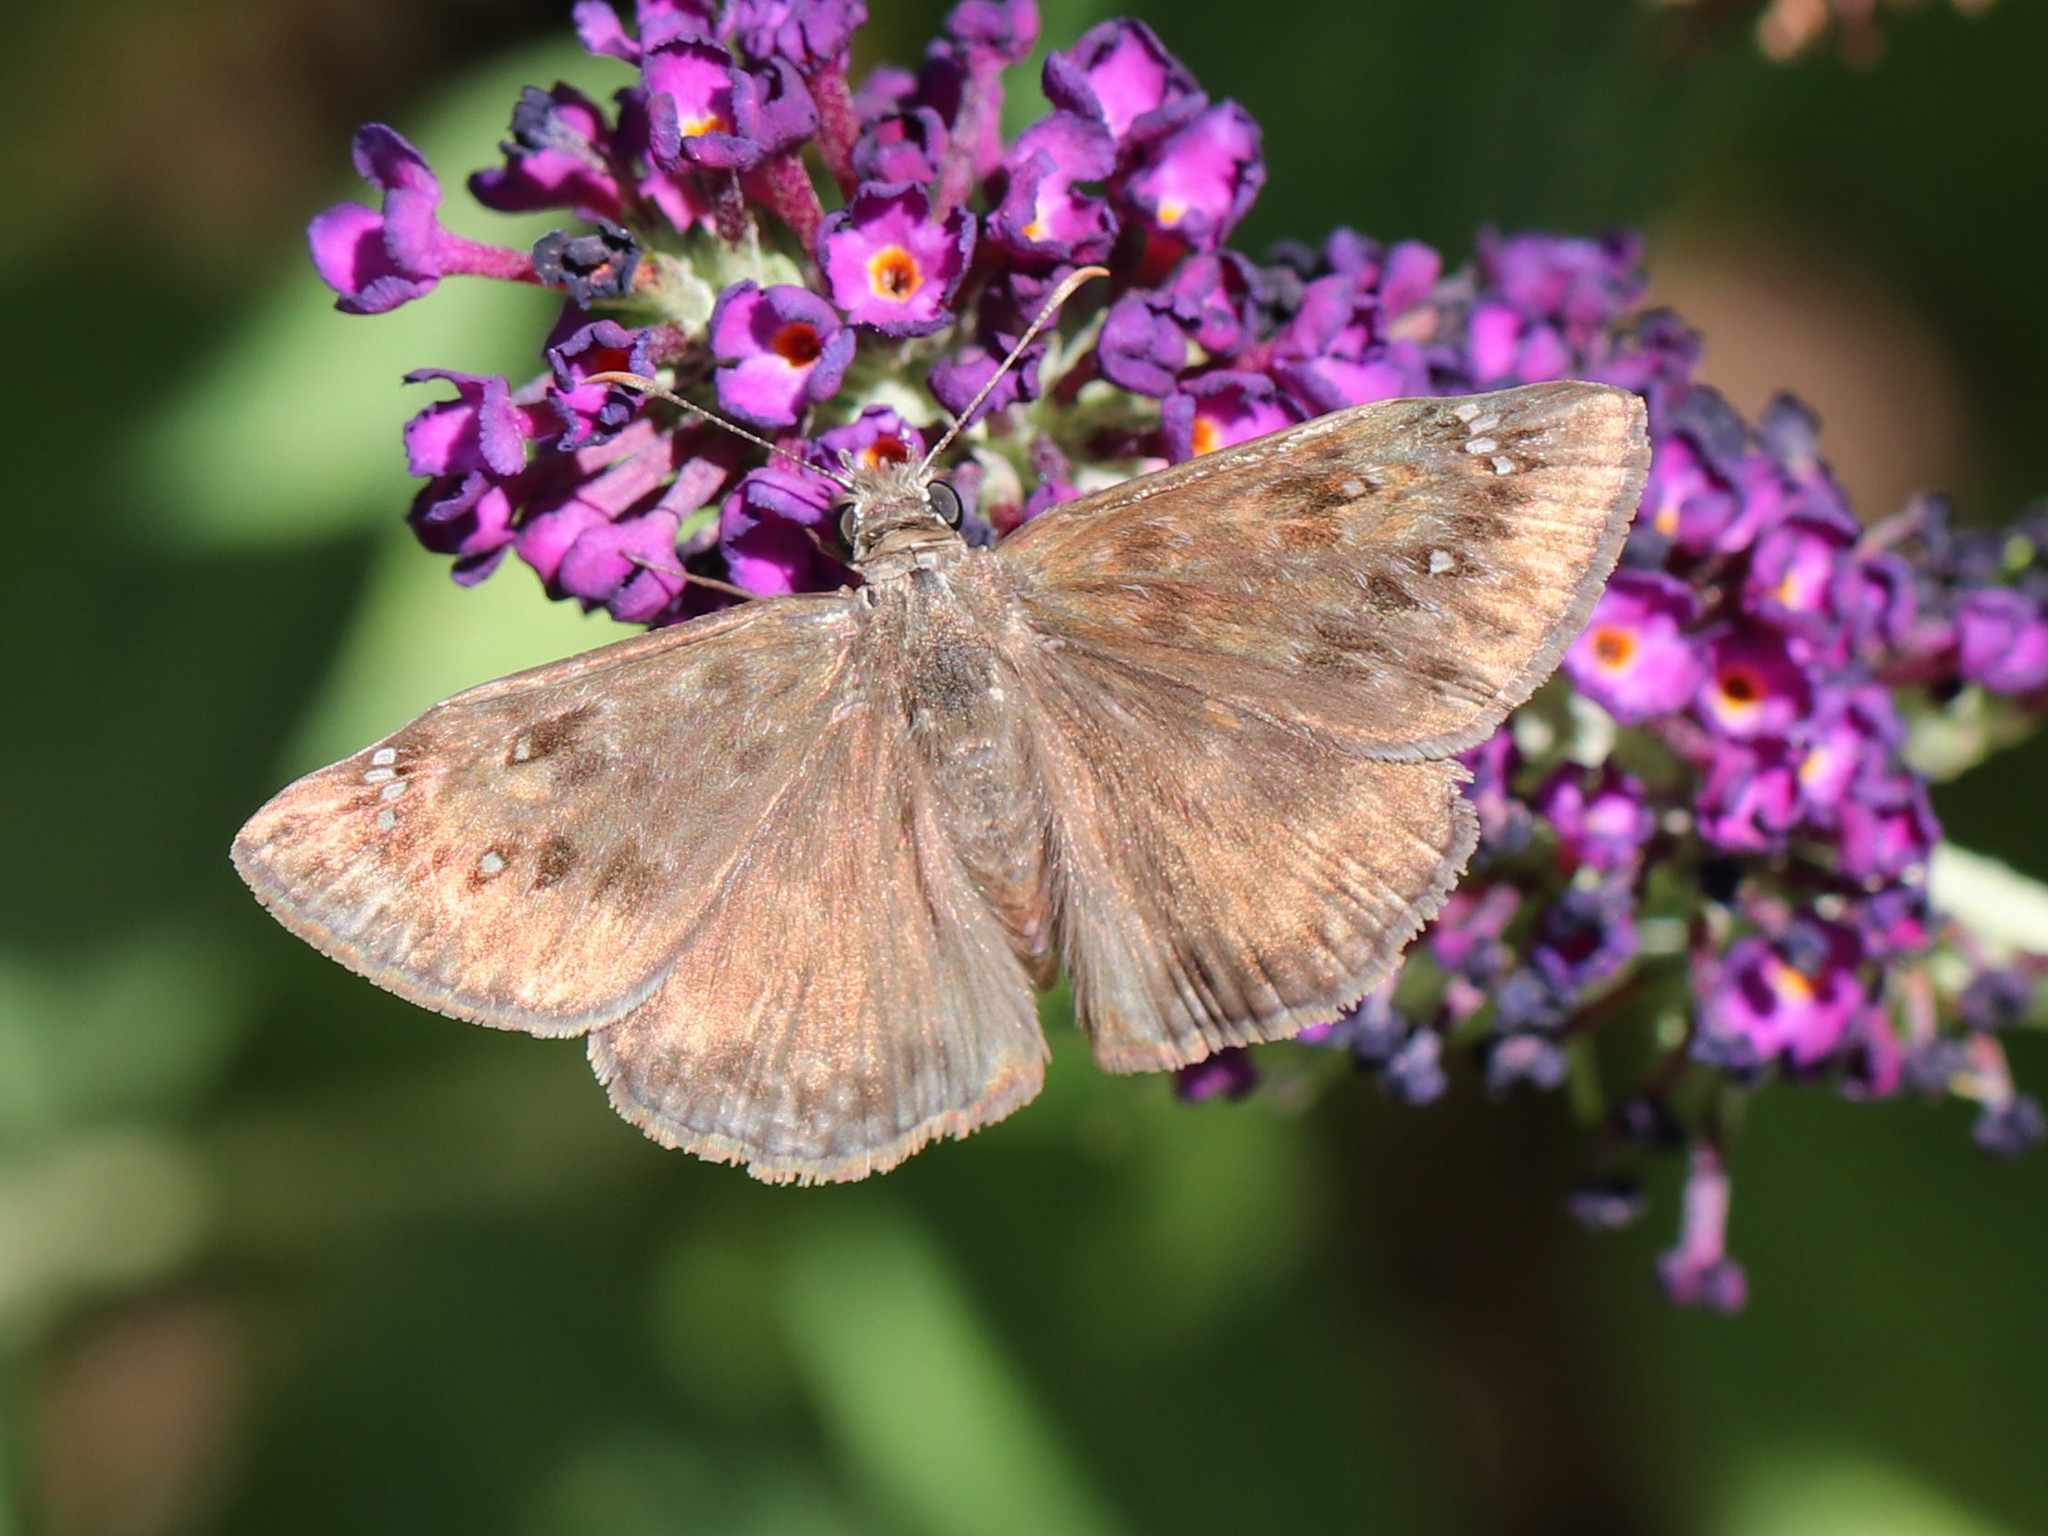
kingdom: Animalia
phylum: Arthropoda
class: Insecta
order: Lepidoptera
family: Hesperiidae
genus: Erynnis
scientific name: Erynnis horatius
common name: Horace's duskywing
